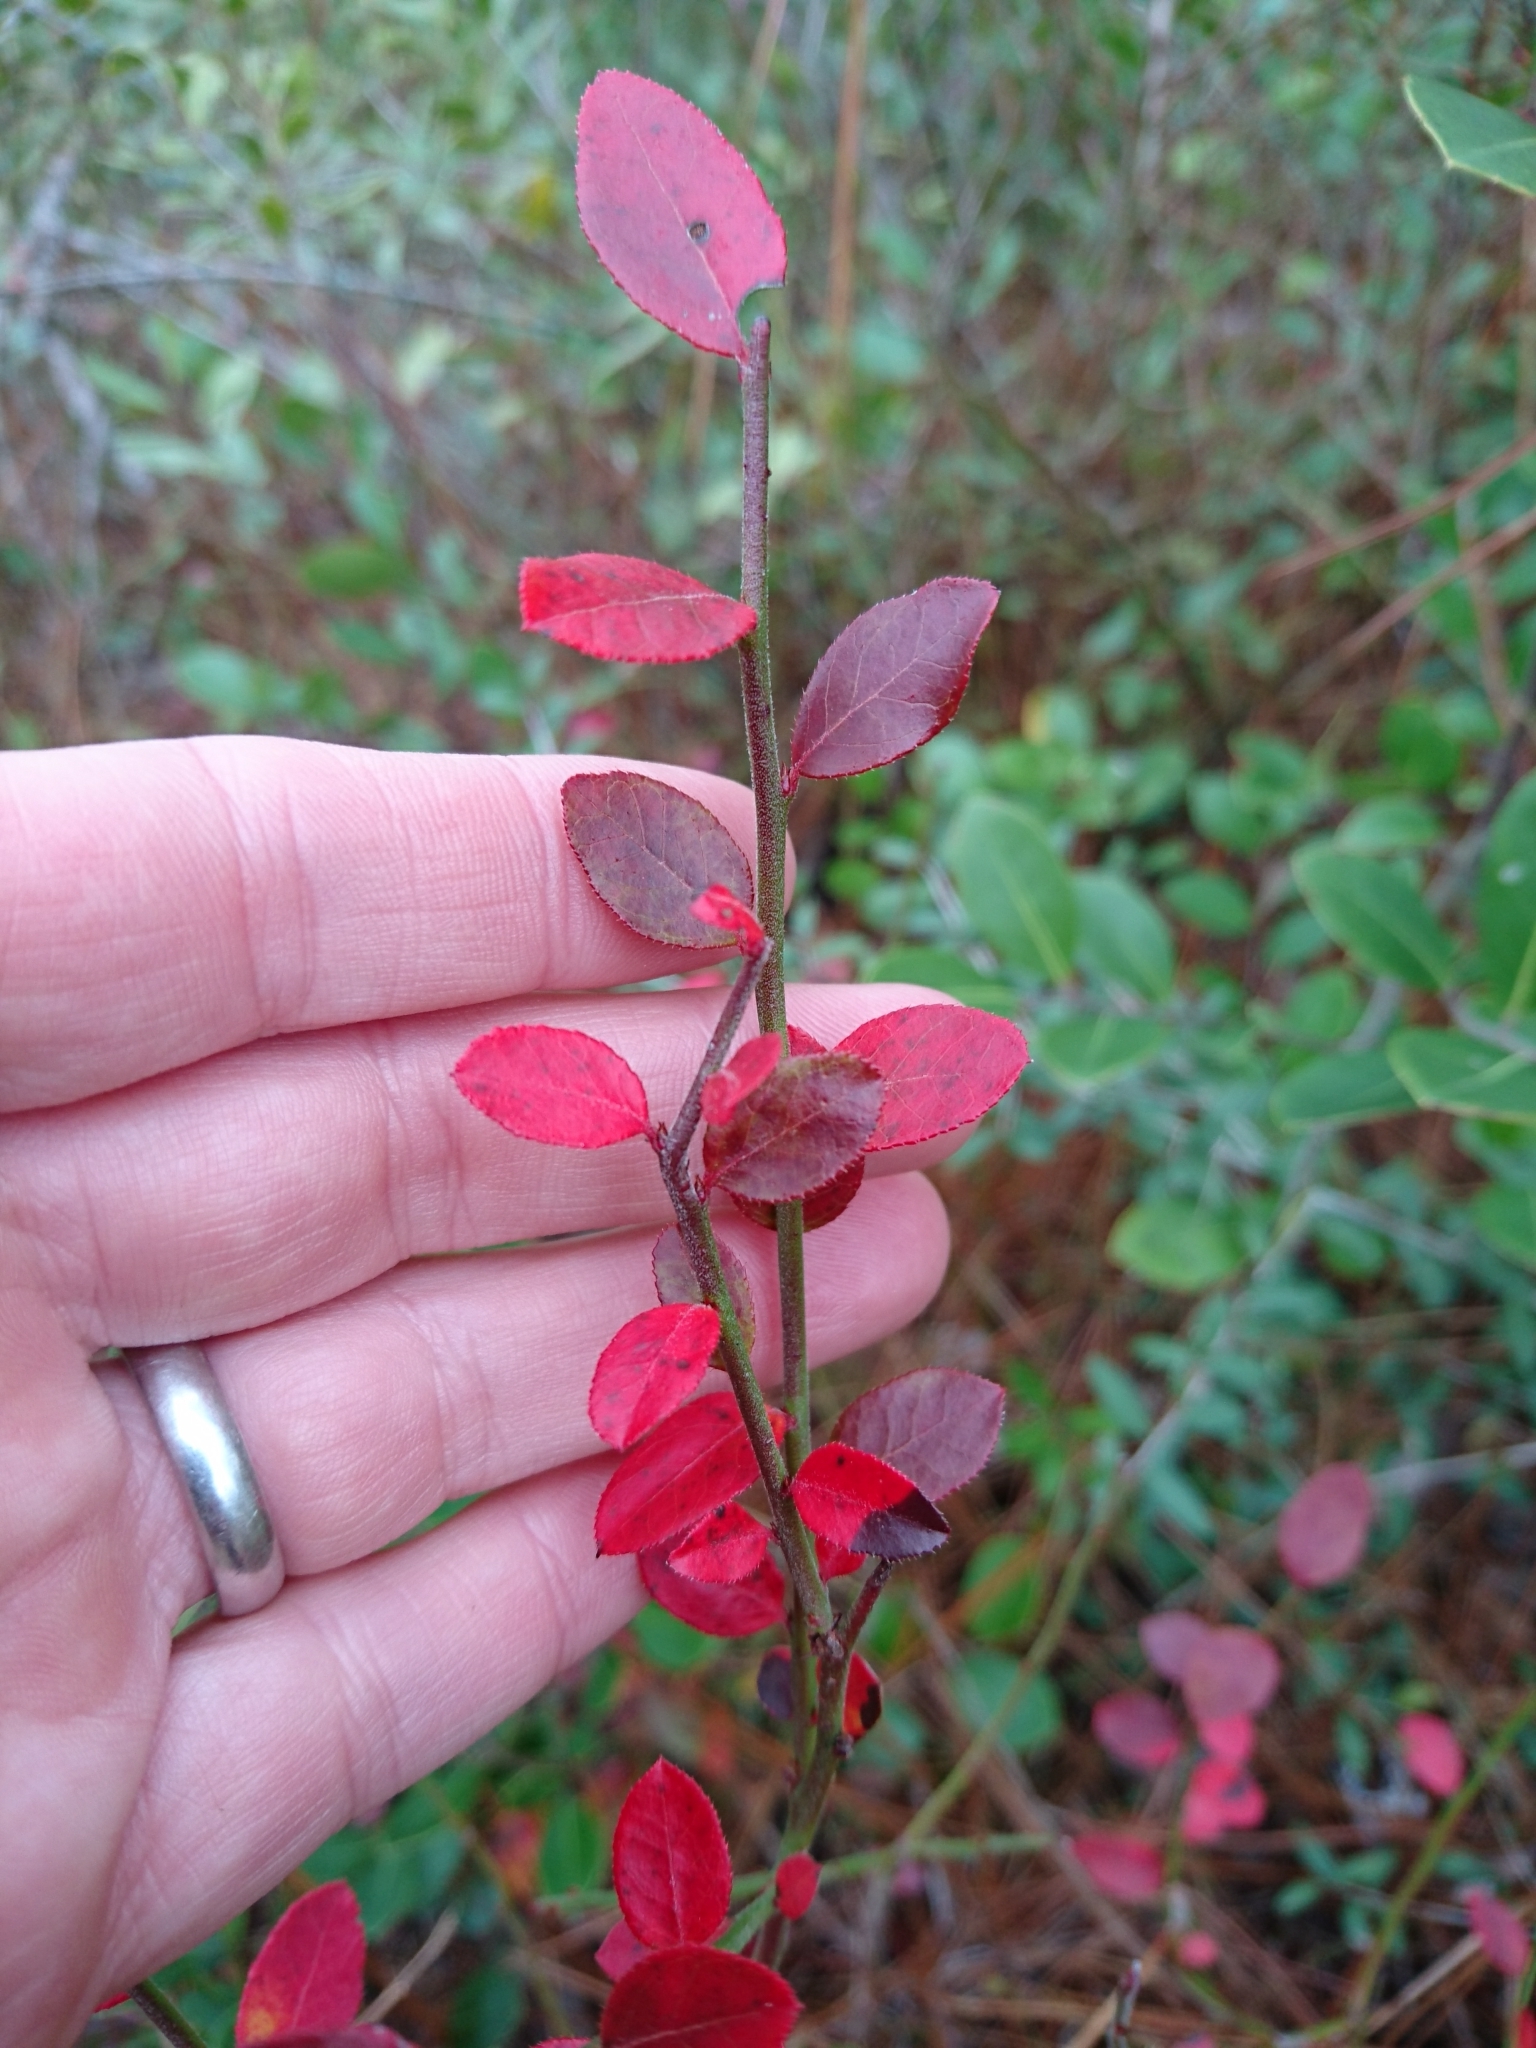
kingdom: Plantae
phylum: Tracheophyta
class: Magnoliopsida
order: Ericales
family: Ericaceae
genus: Vaccinium
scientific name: Vaccinium corymbosum
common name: Blueberry
